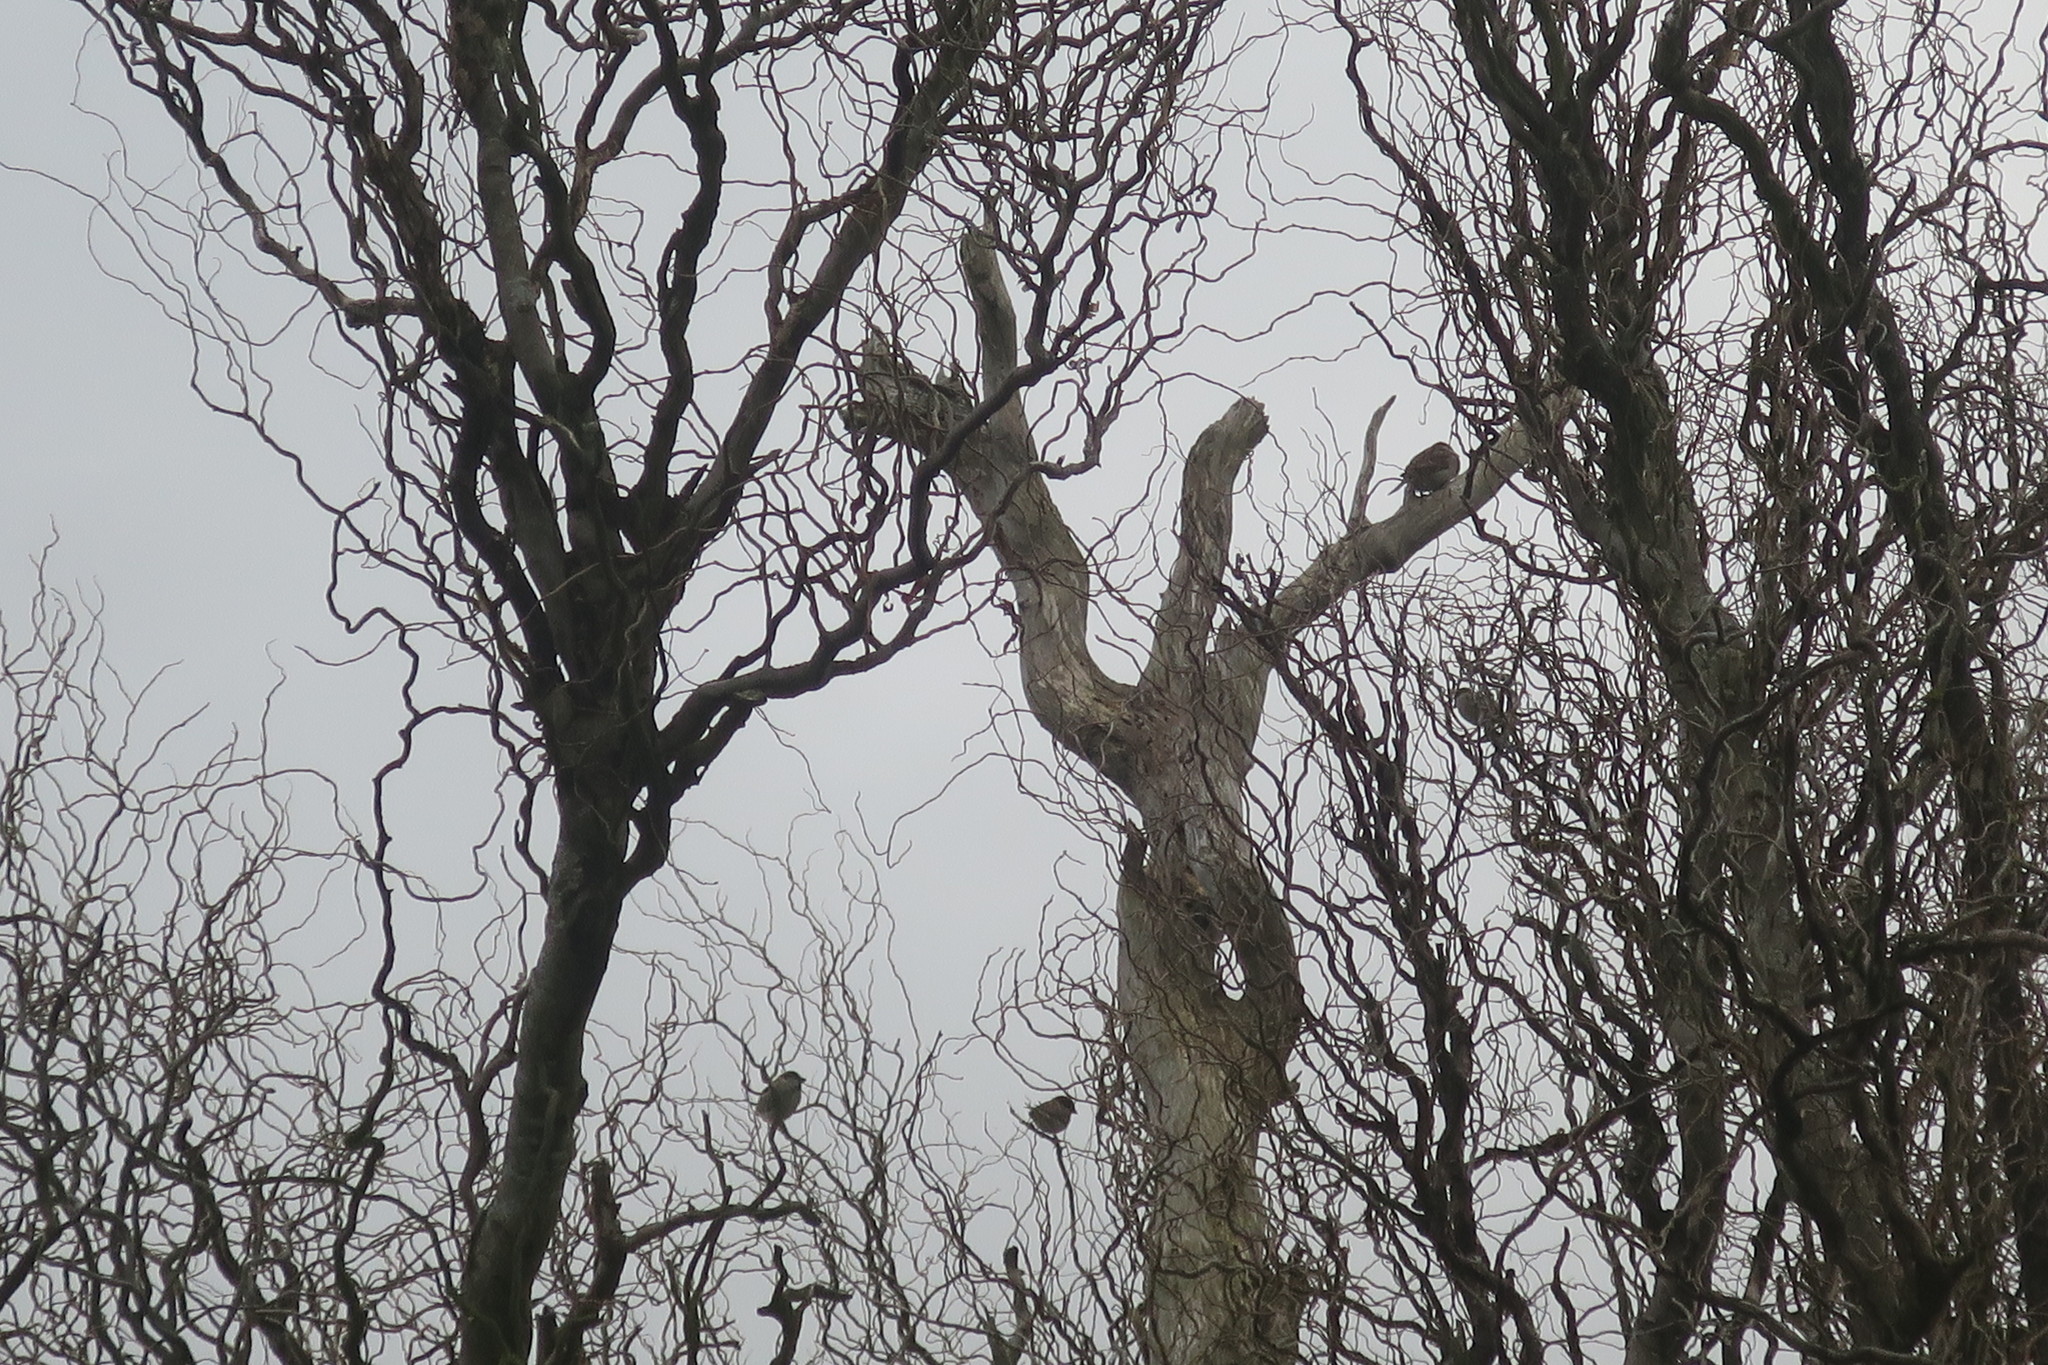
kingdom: Animalia
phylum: Chordata
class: Aves
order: Passeriformes
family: Passeridae
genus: Passer
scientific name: Passer domesticus
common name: House sparrow
